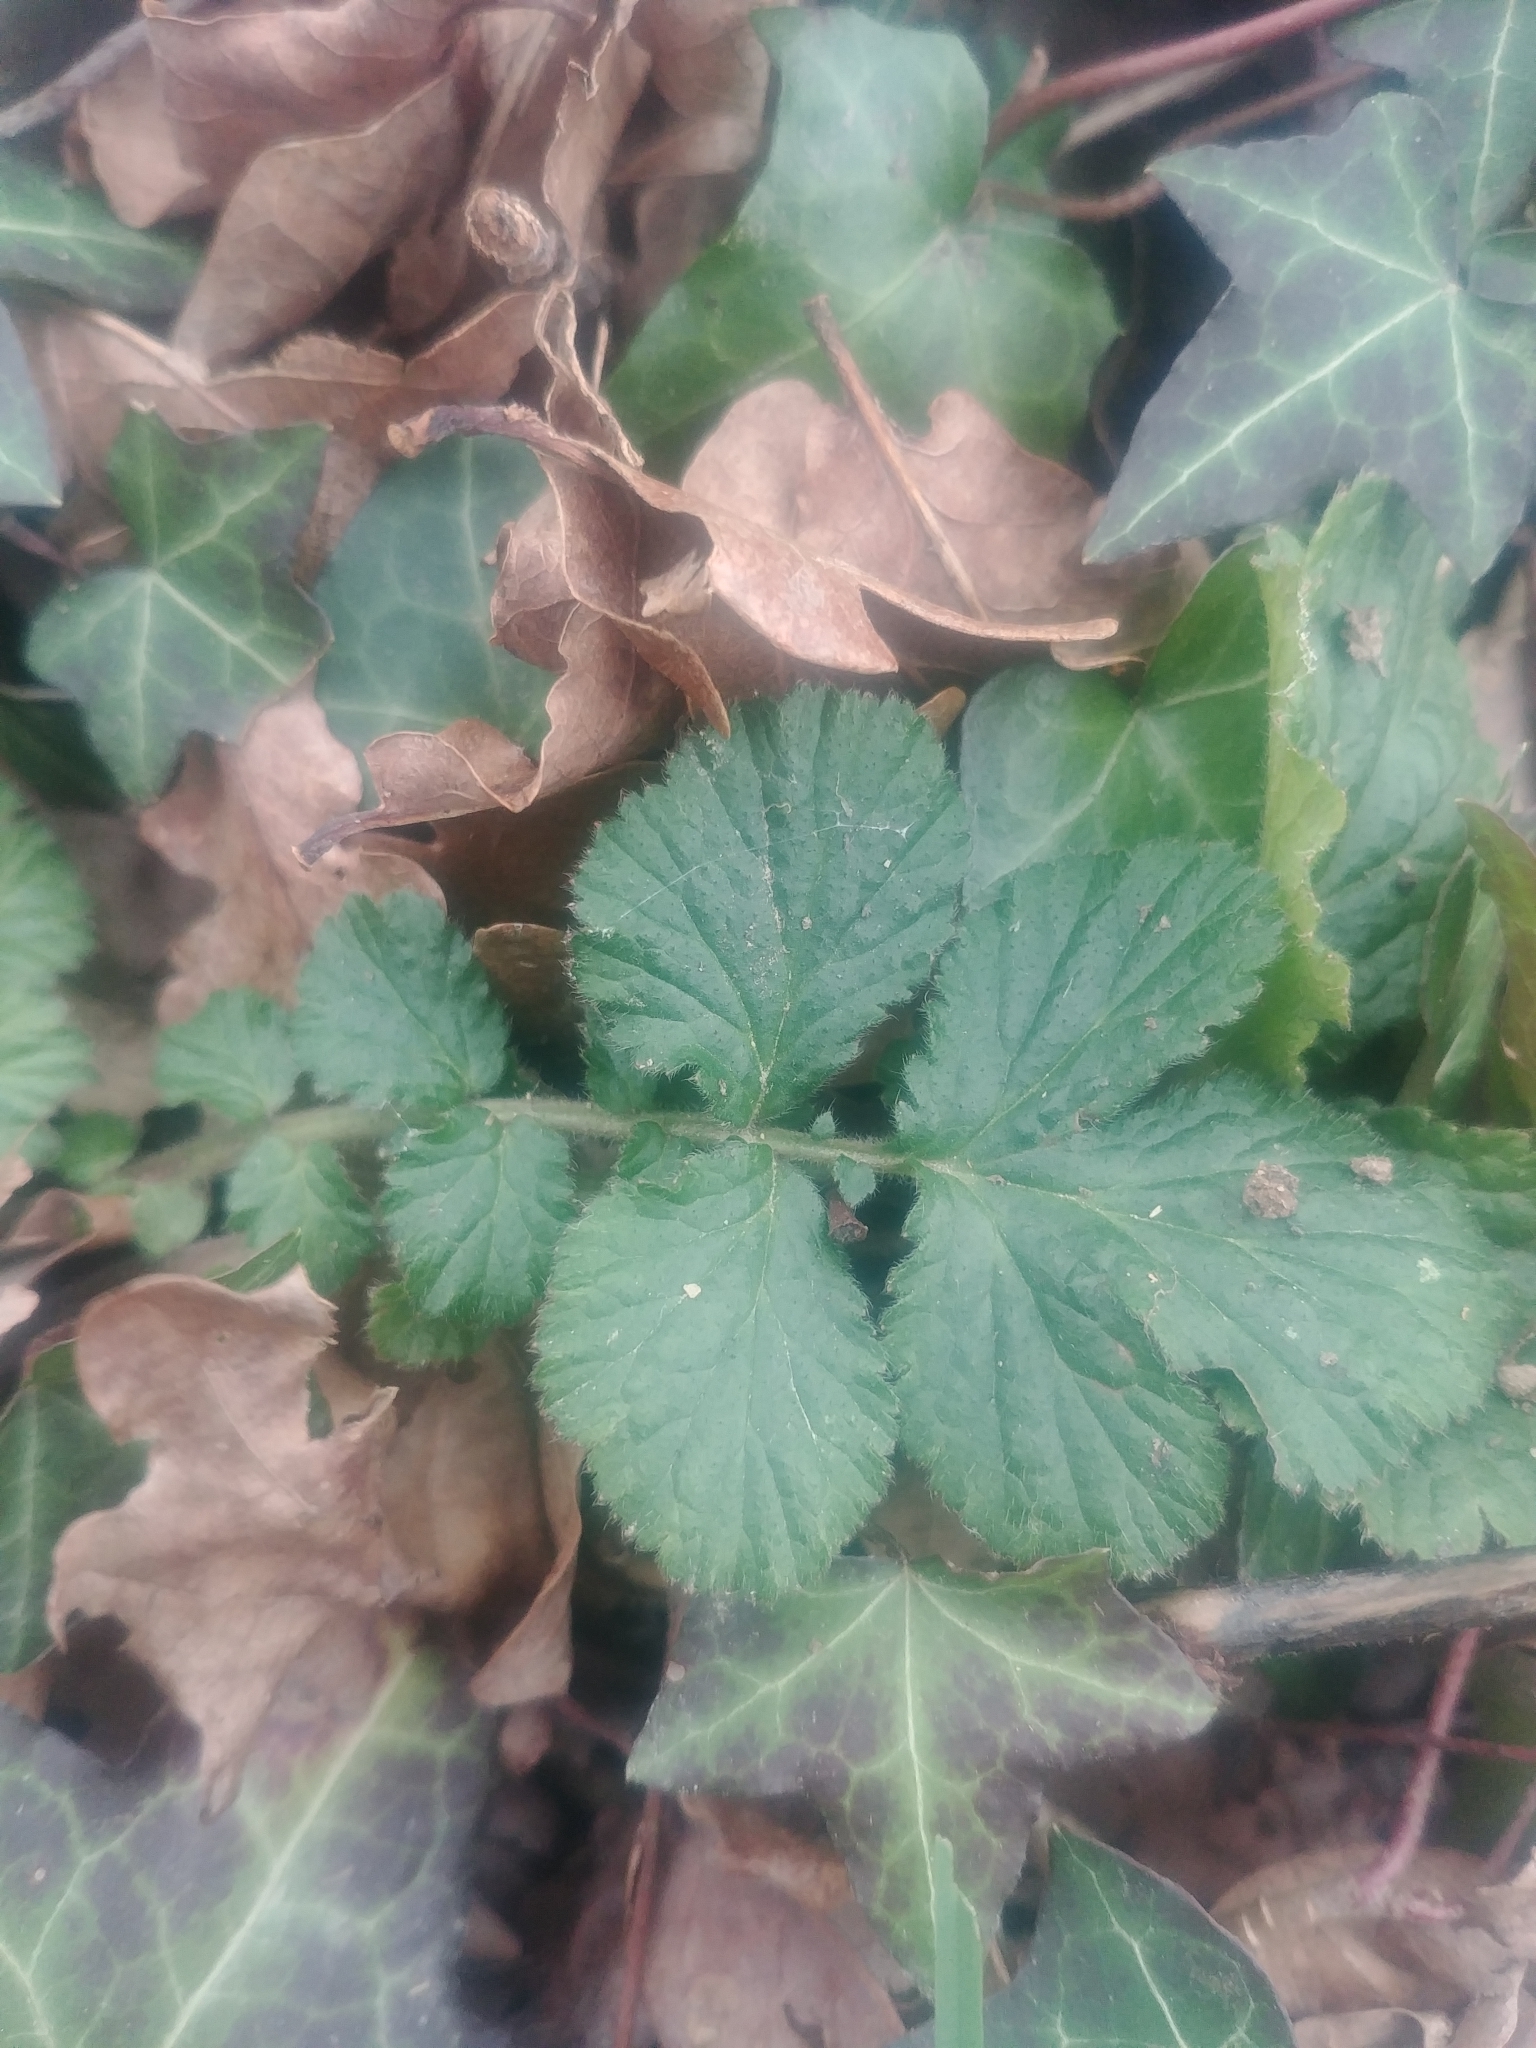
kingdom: Plantae
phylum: Tracheophyta
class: Magnoliopsida
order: Rosales
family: Rosaceae
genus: Geum
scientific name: Geum urbanum
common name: Wood avens
